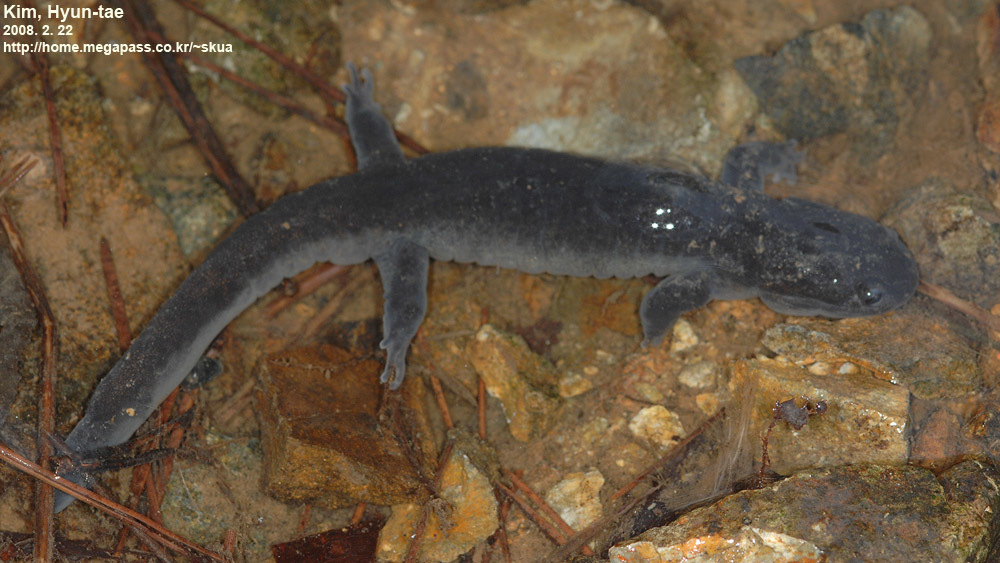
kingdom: Animalia
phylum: Chordata
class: Amphibia
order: Caudata
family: Hynobiidae
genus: Hynobius
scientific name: Hynobius yangi
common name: Yangi salamander
